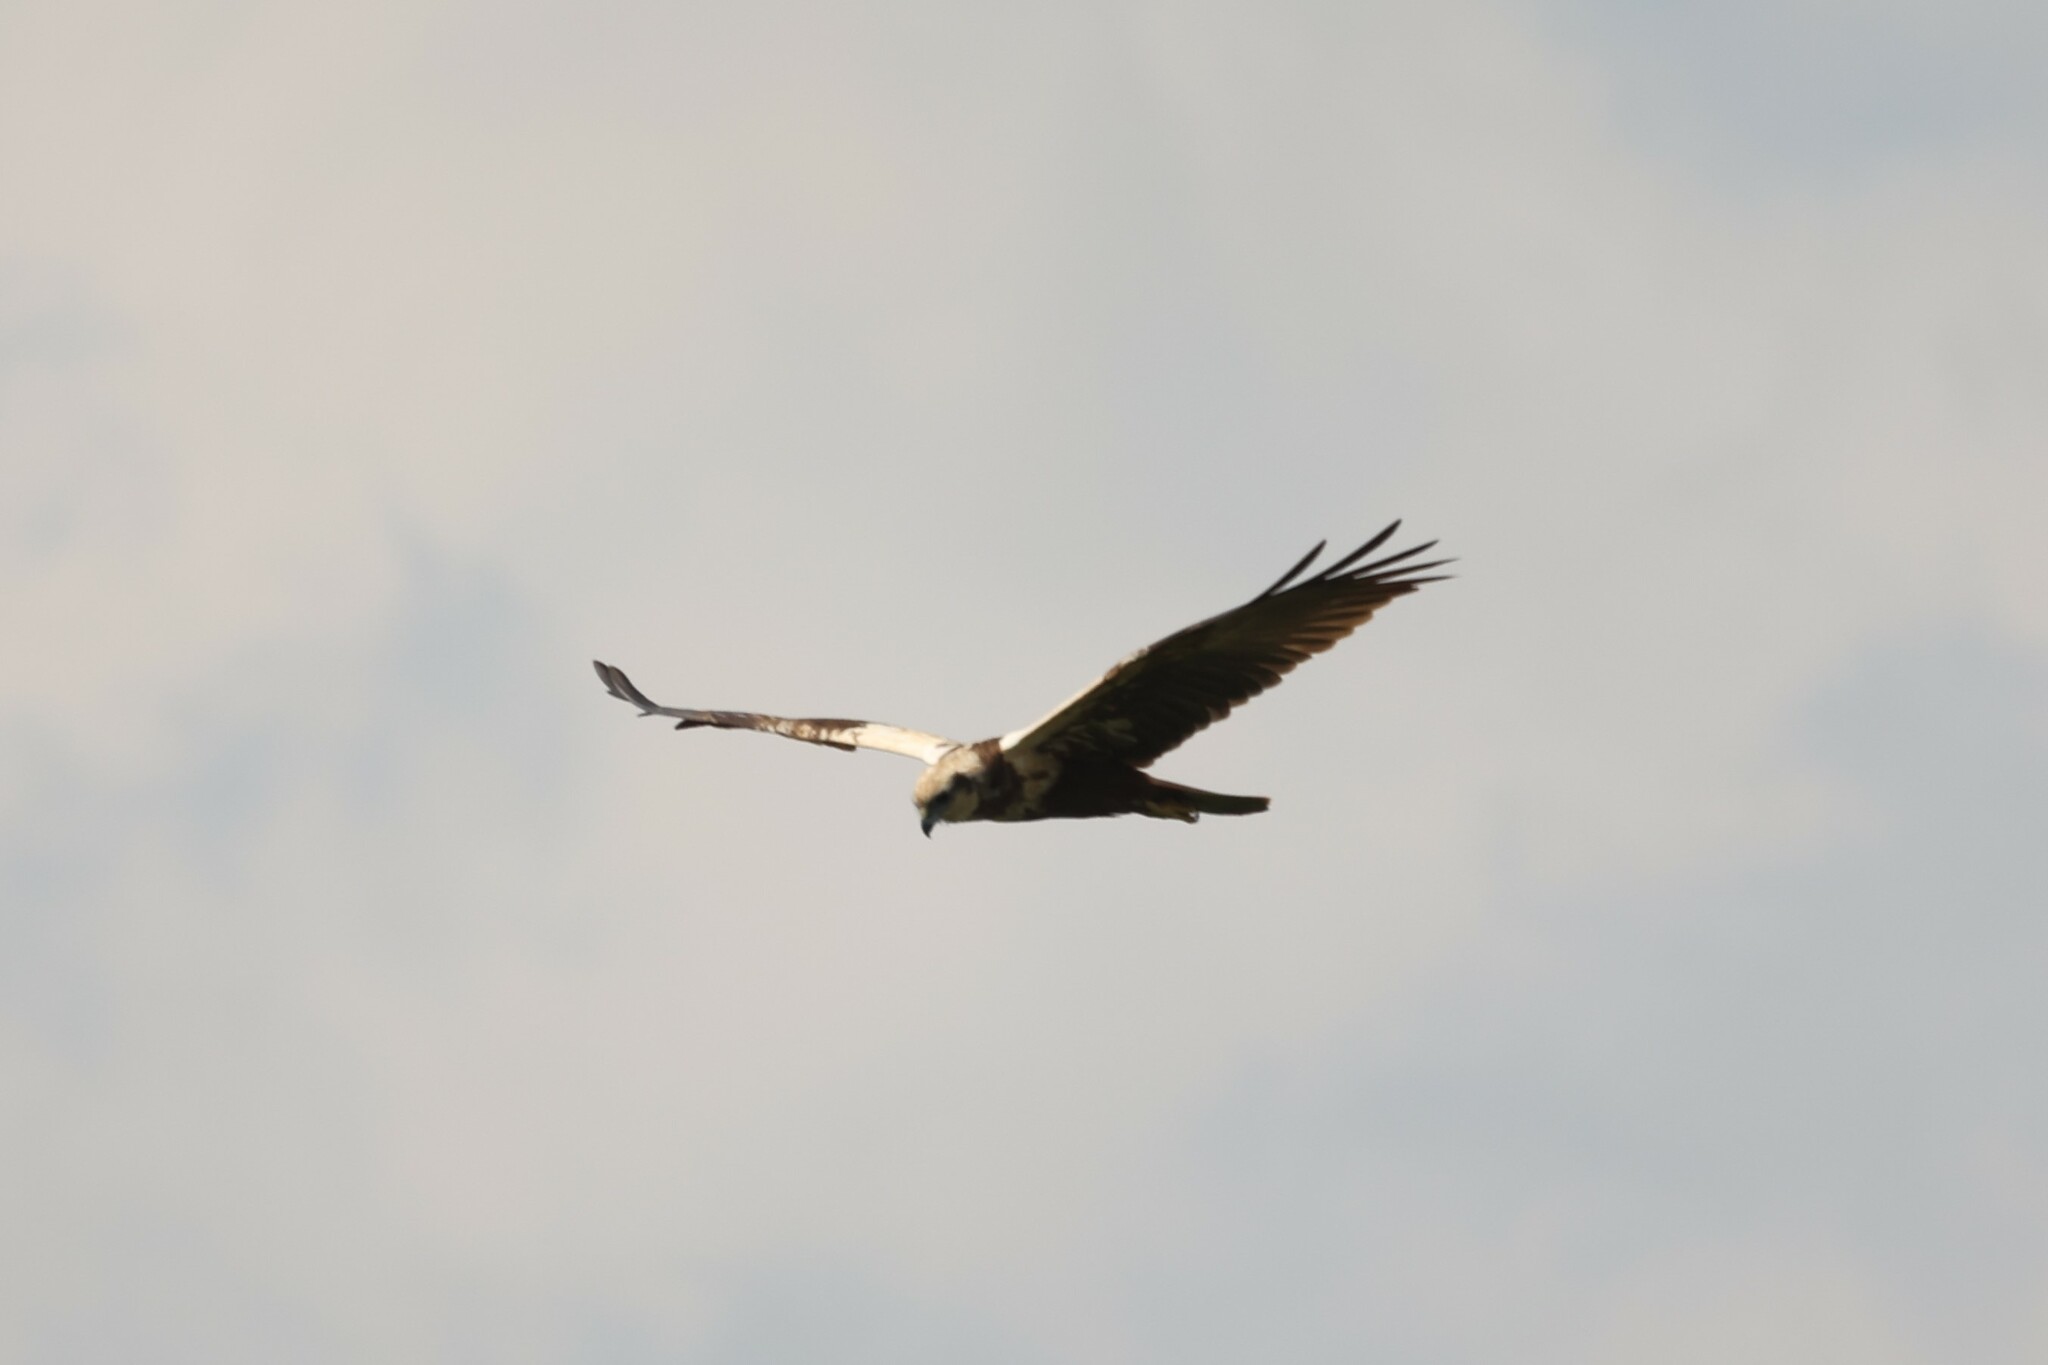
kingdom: Animalia
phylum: Chordata
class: Aves
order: Accipitriformes
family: Accipitridae
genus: Circus
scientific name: Circus aeruginosus
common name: Western marsh harrier
